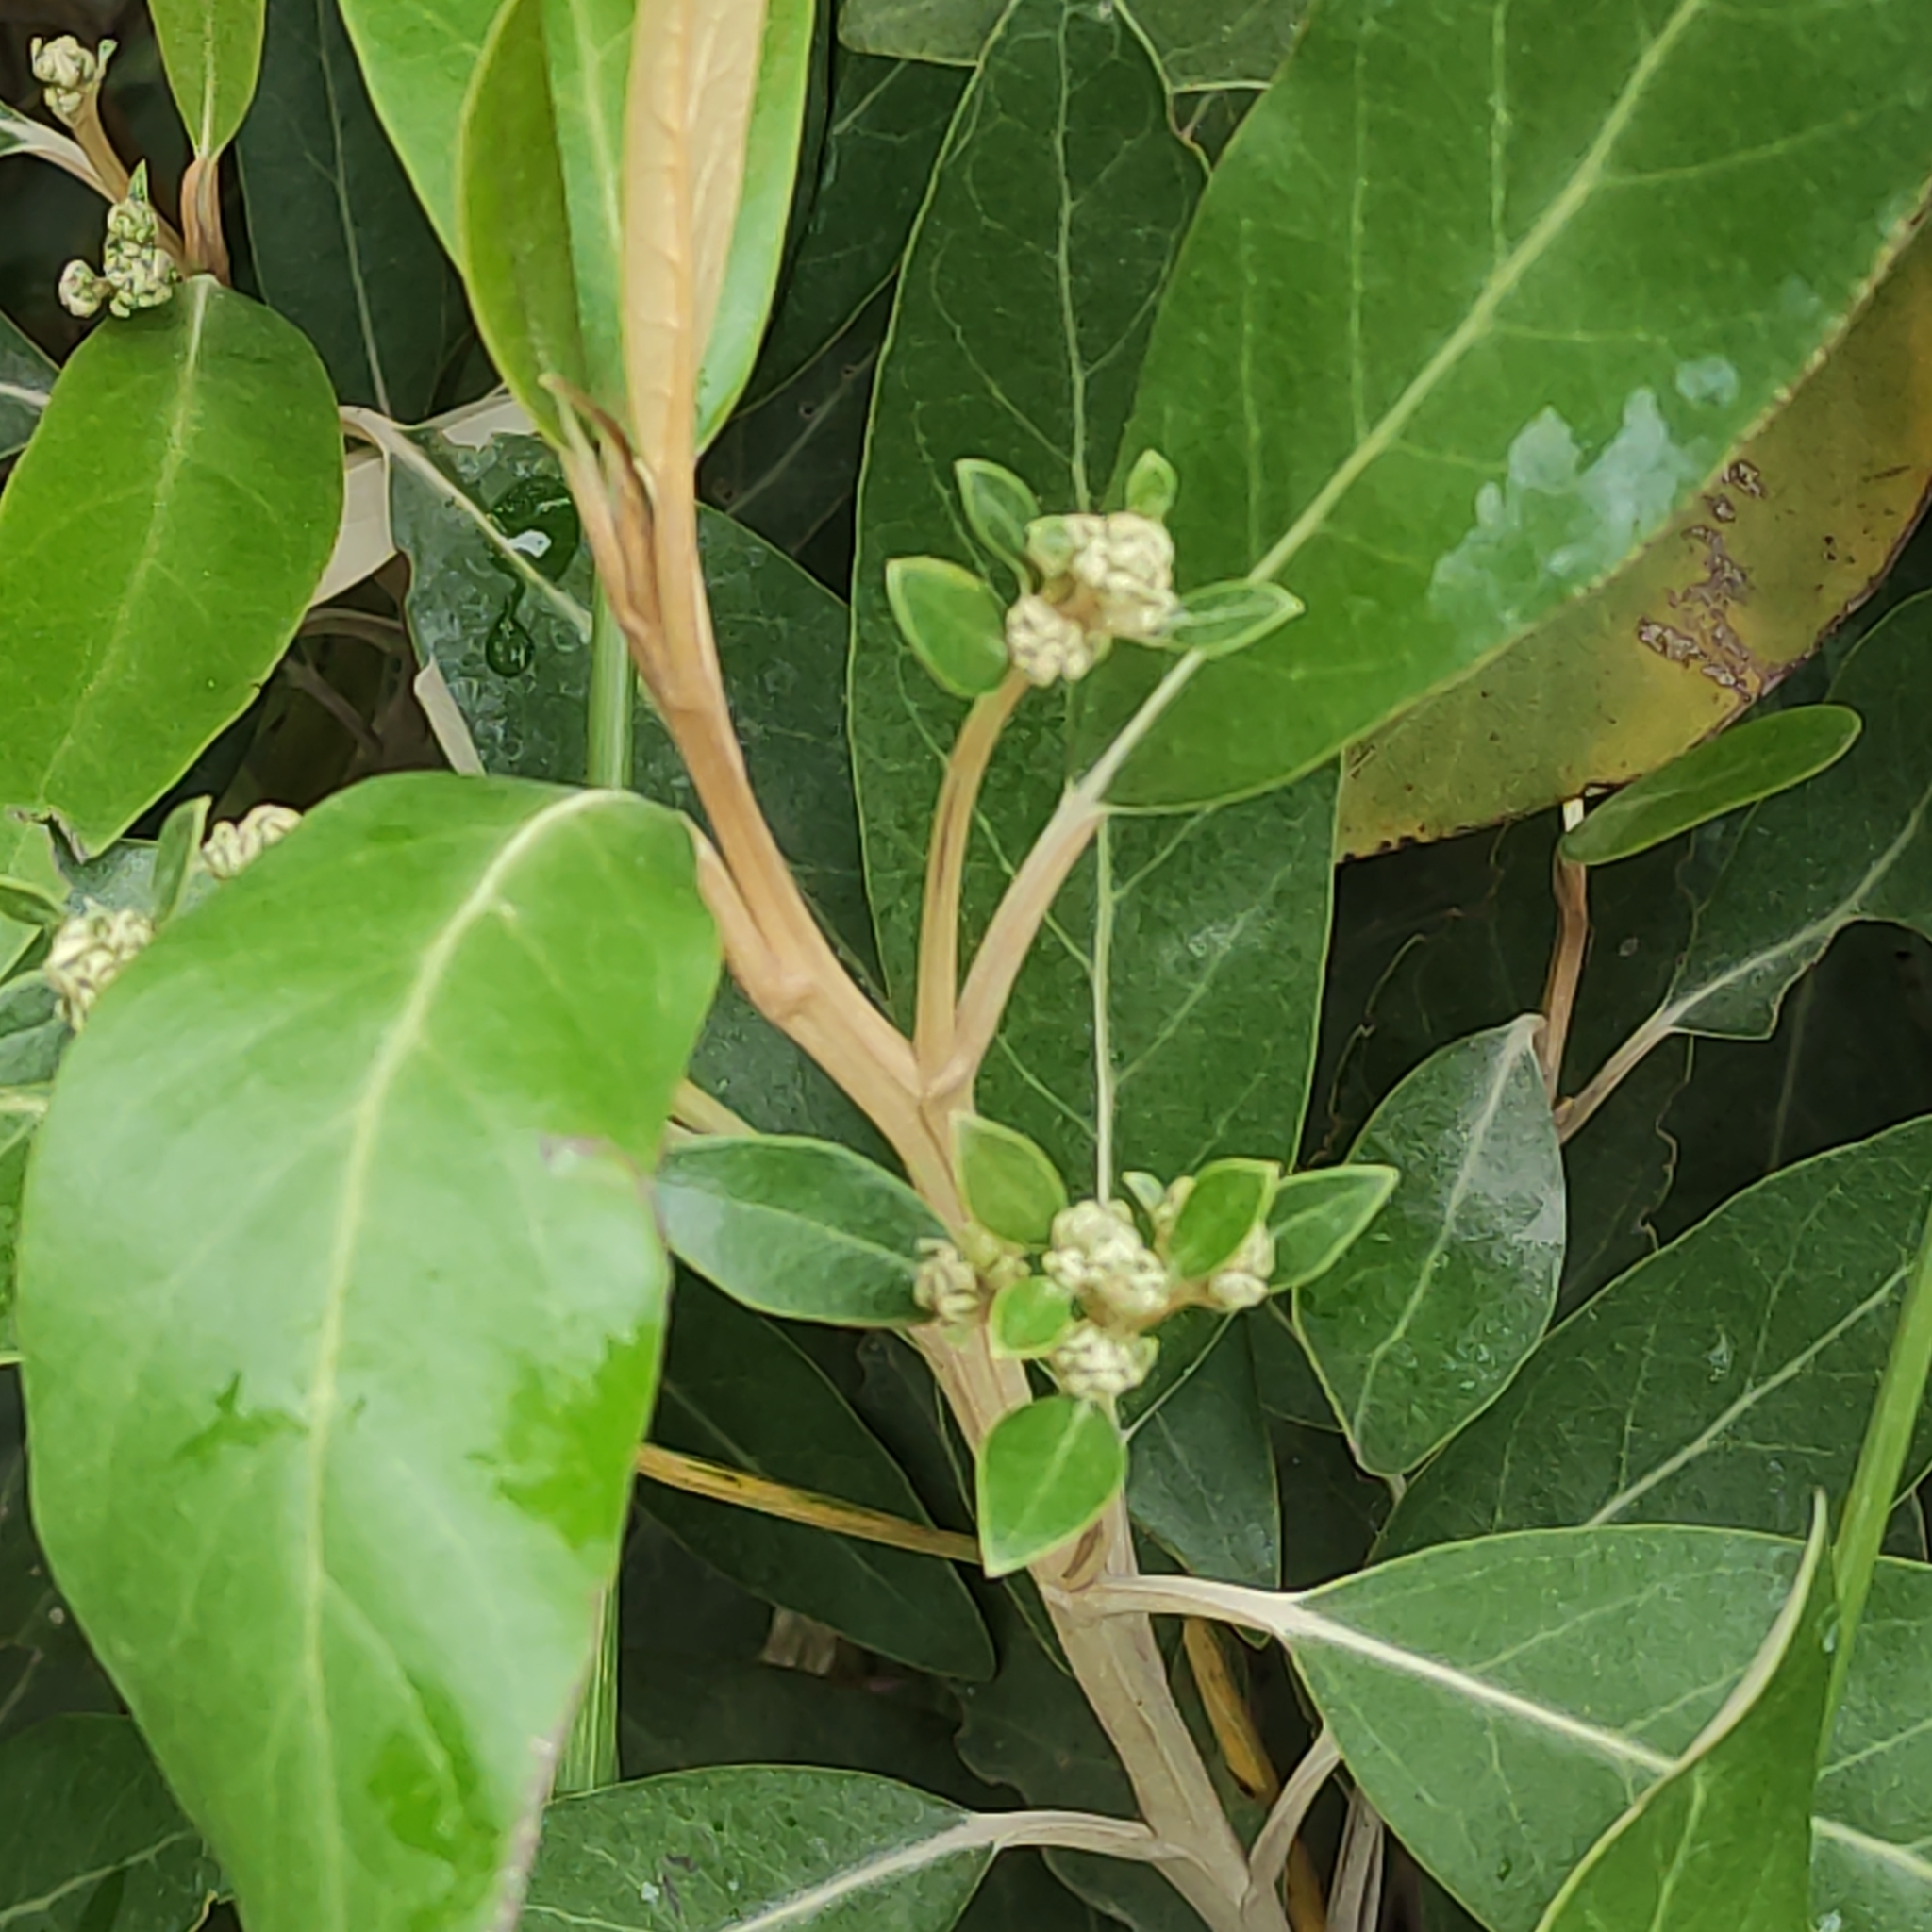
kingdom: Plantae
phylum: Tracheophyta
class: Magnoliopsida
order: Asterales
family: Asteraceae
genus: Olearia
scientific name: Olearia avicenniifolia
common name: Mangrove-leaf daisybush
